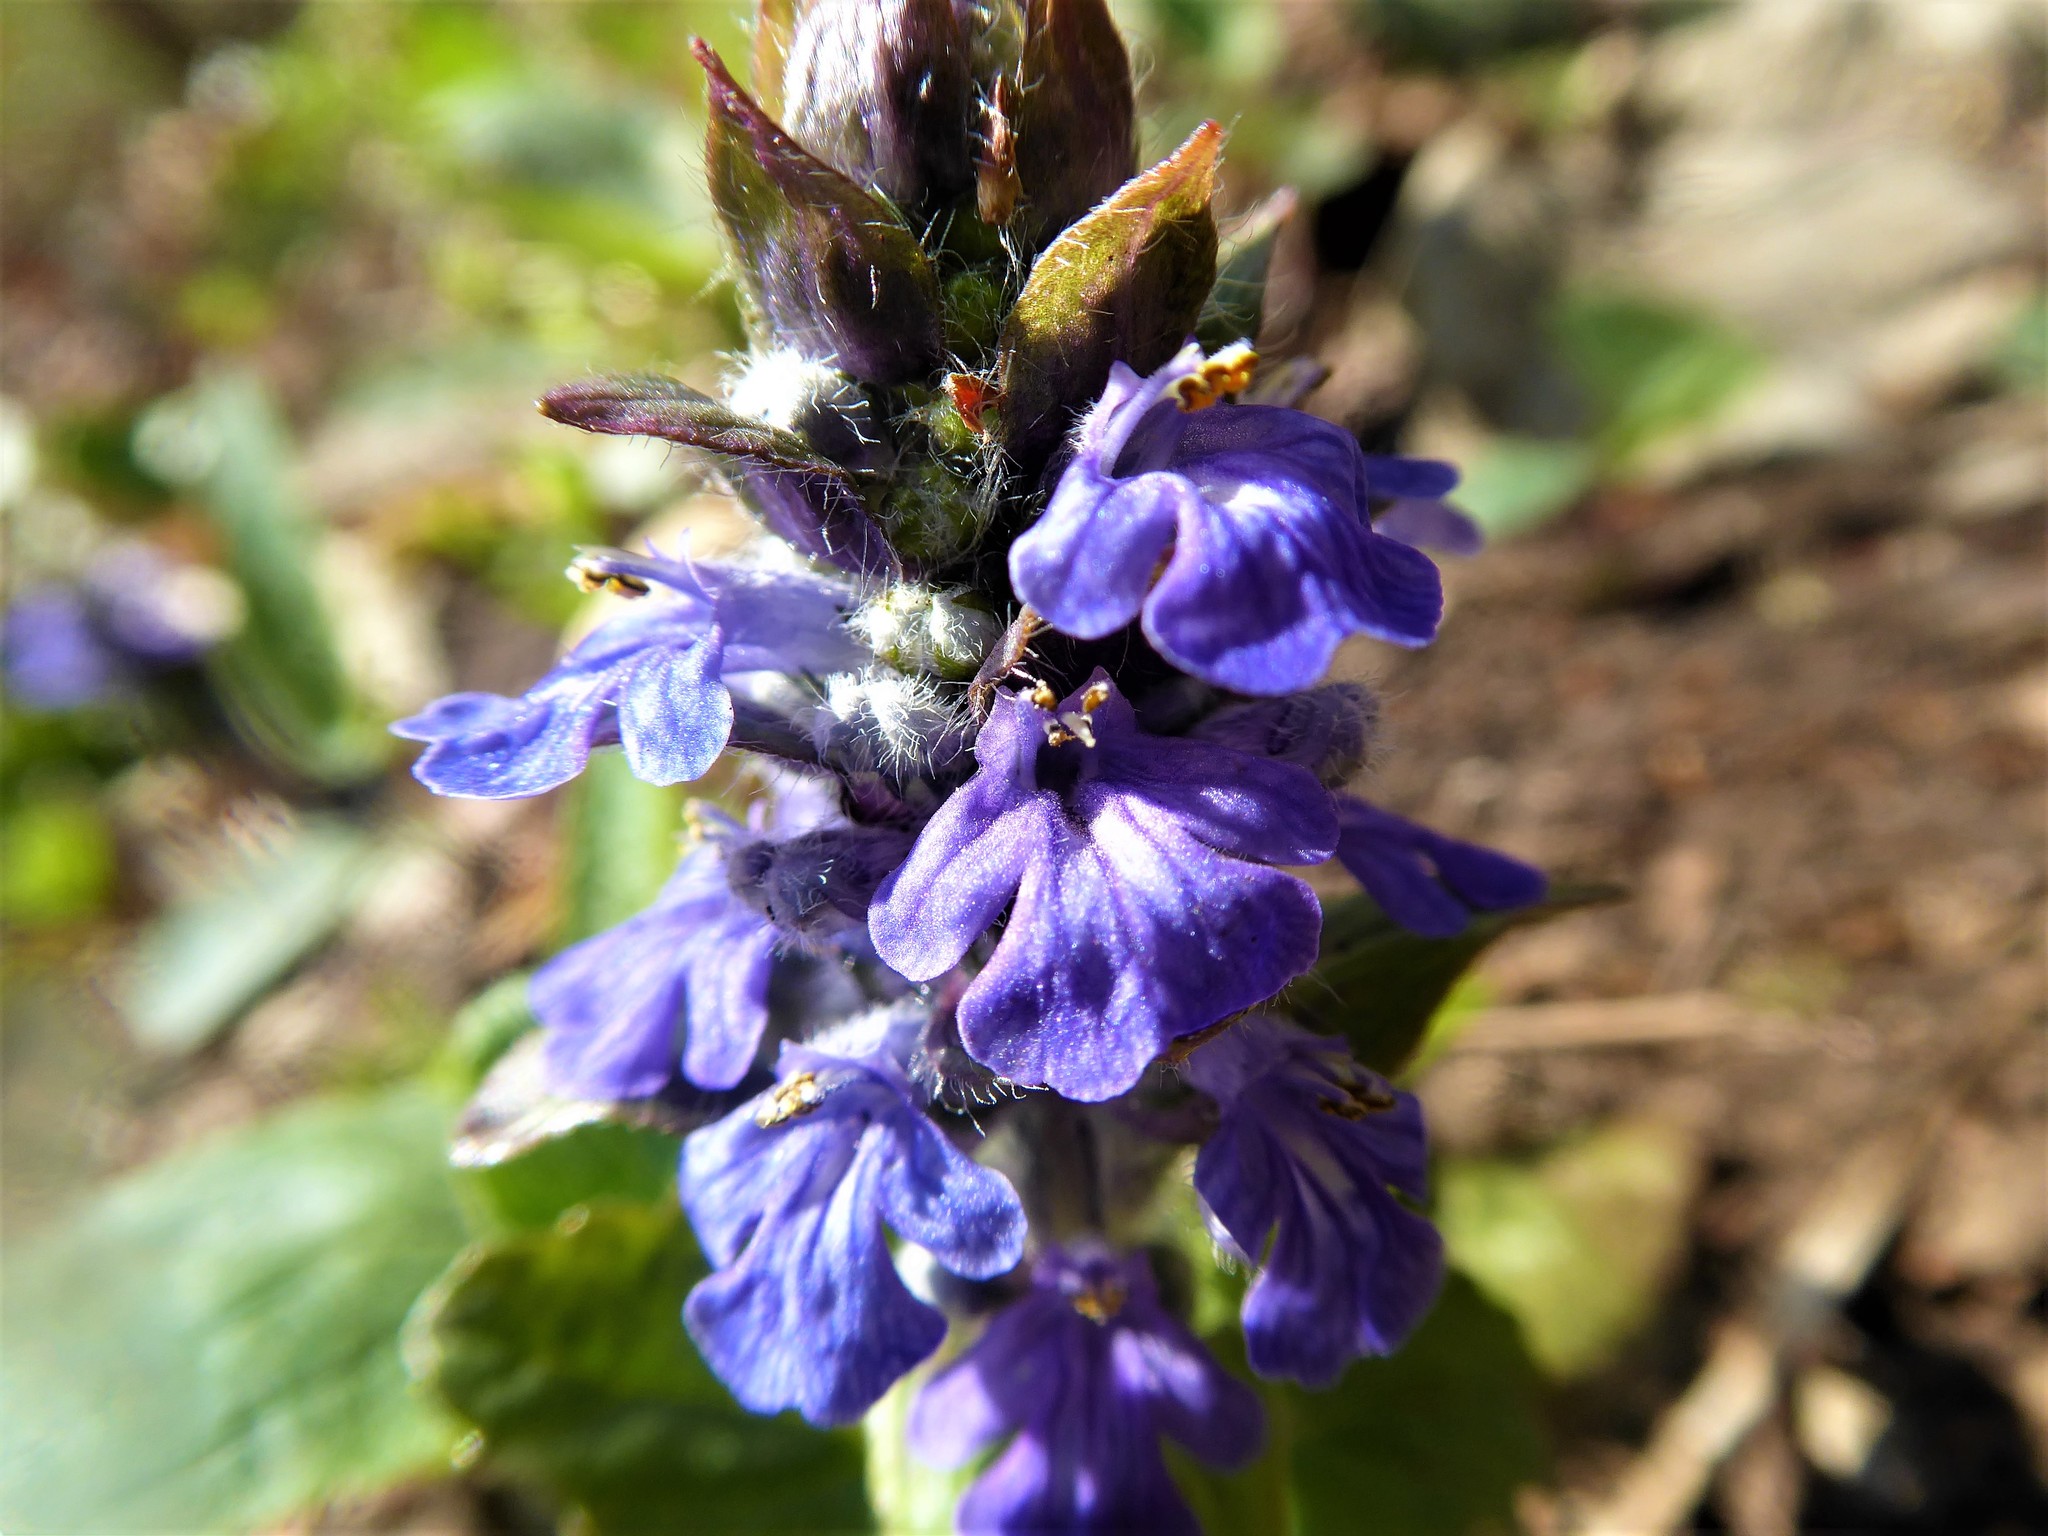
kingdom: Plantae
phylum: Tracheophyta
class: Magnoliopsida
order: Lamiales
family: Lamiaceae
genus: Ajuga
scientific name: Ajuga reptans
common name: Bugle
